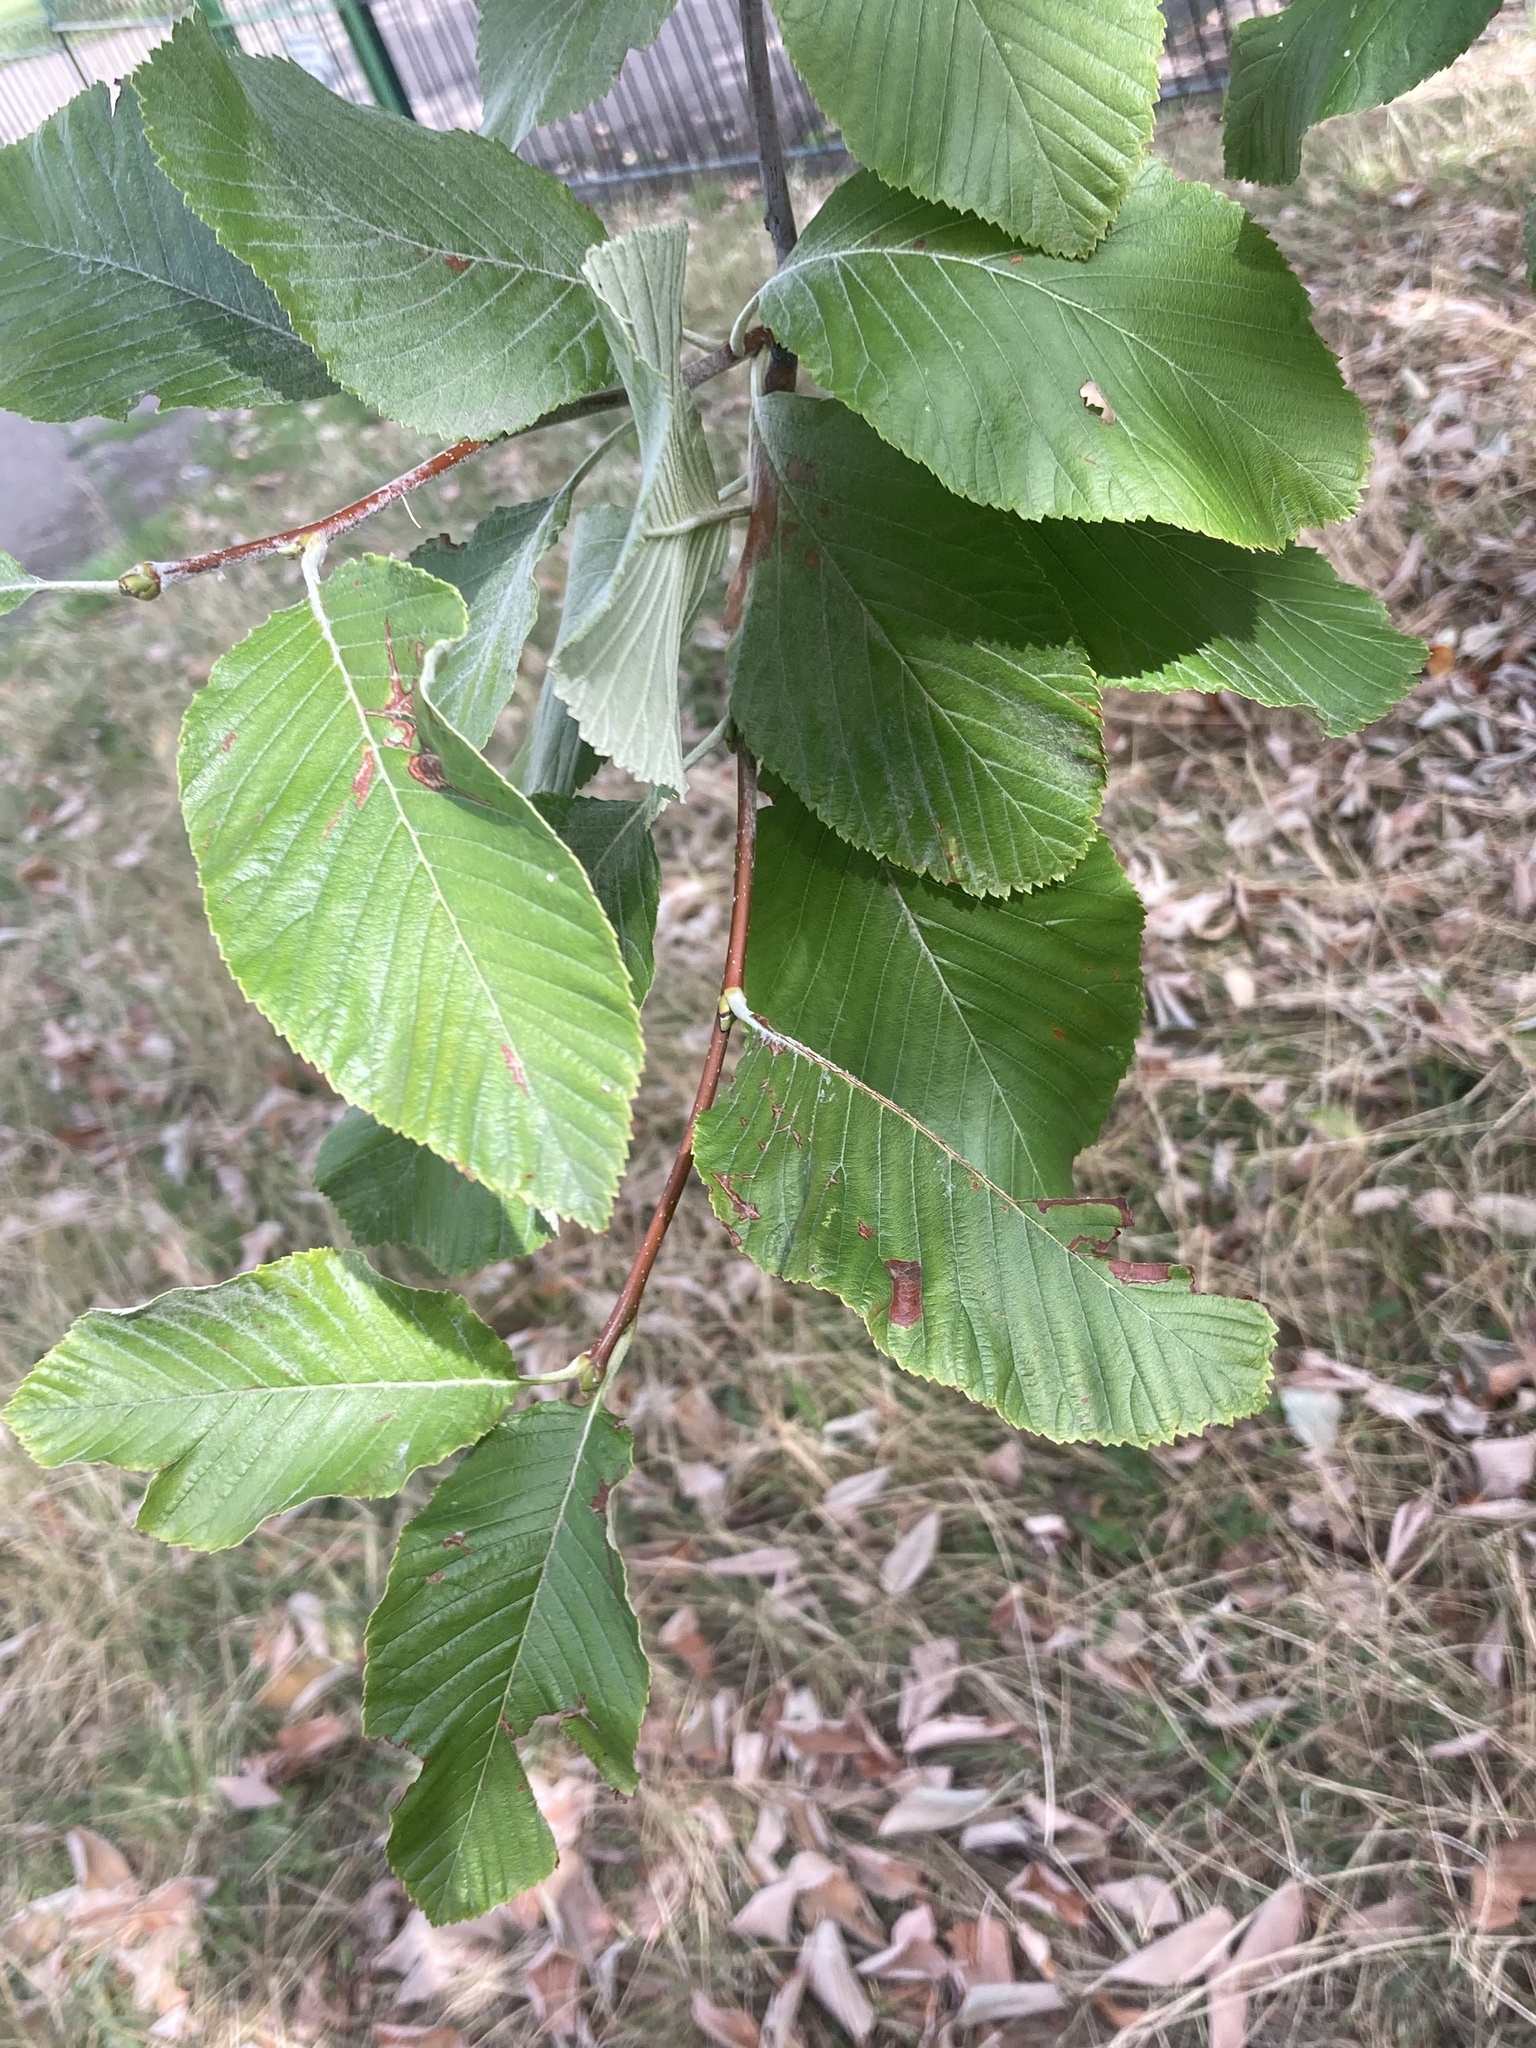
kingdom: Plantae
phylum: Tracheophyta
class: Magnoliopsida
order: Rosales
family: Rosaceae
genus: Aria
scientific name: Aria edulis
